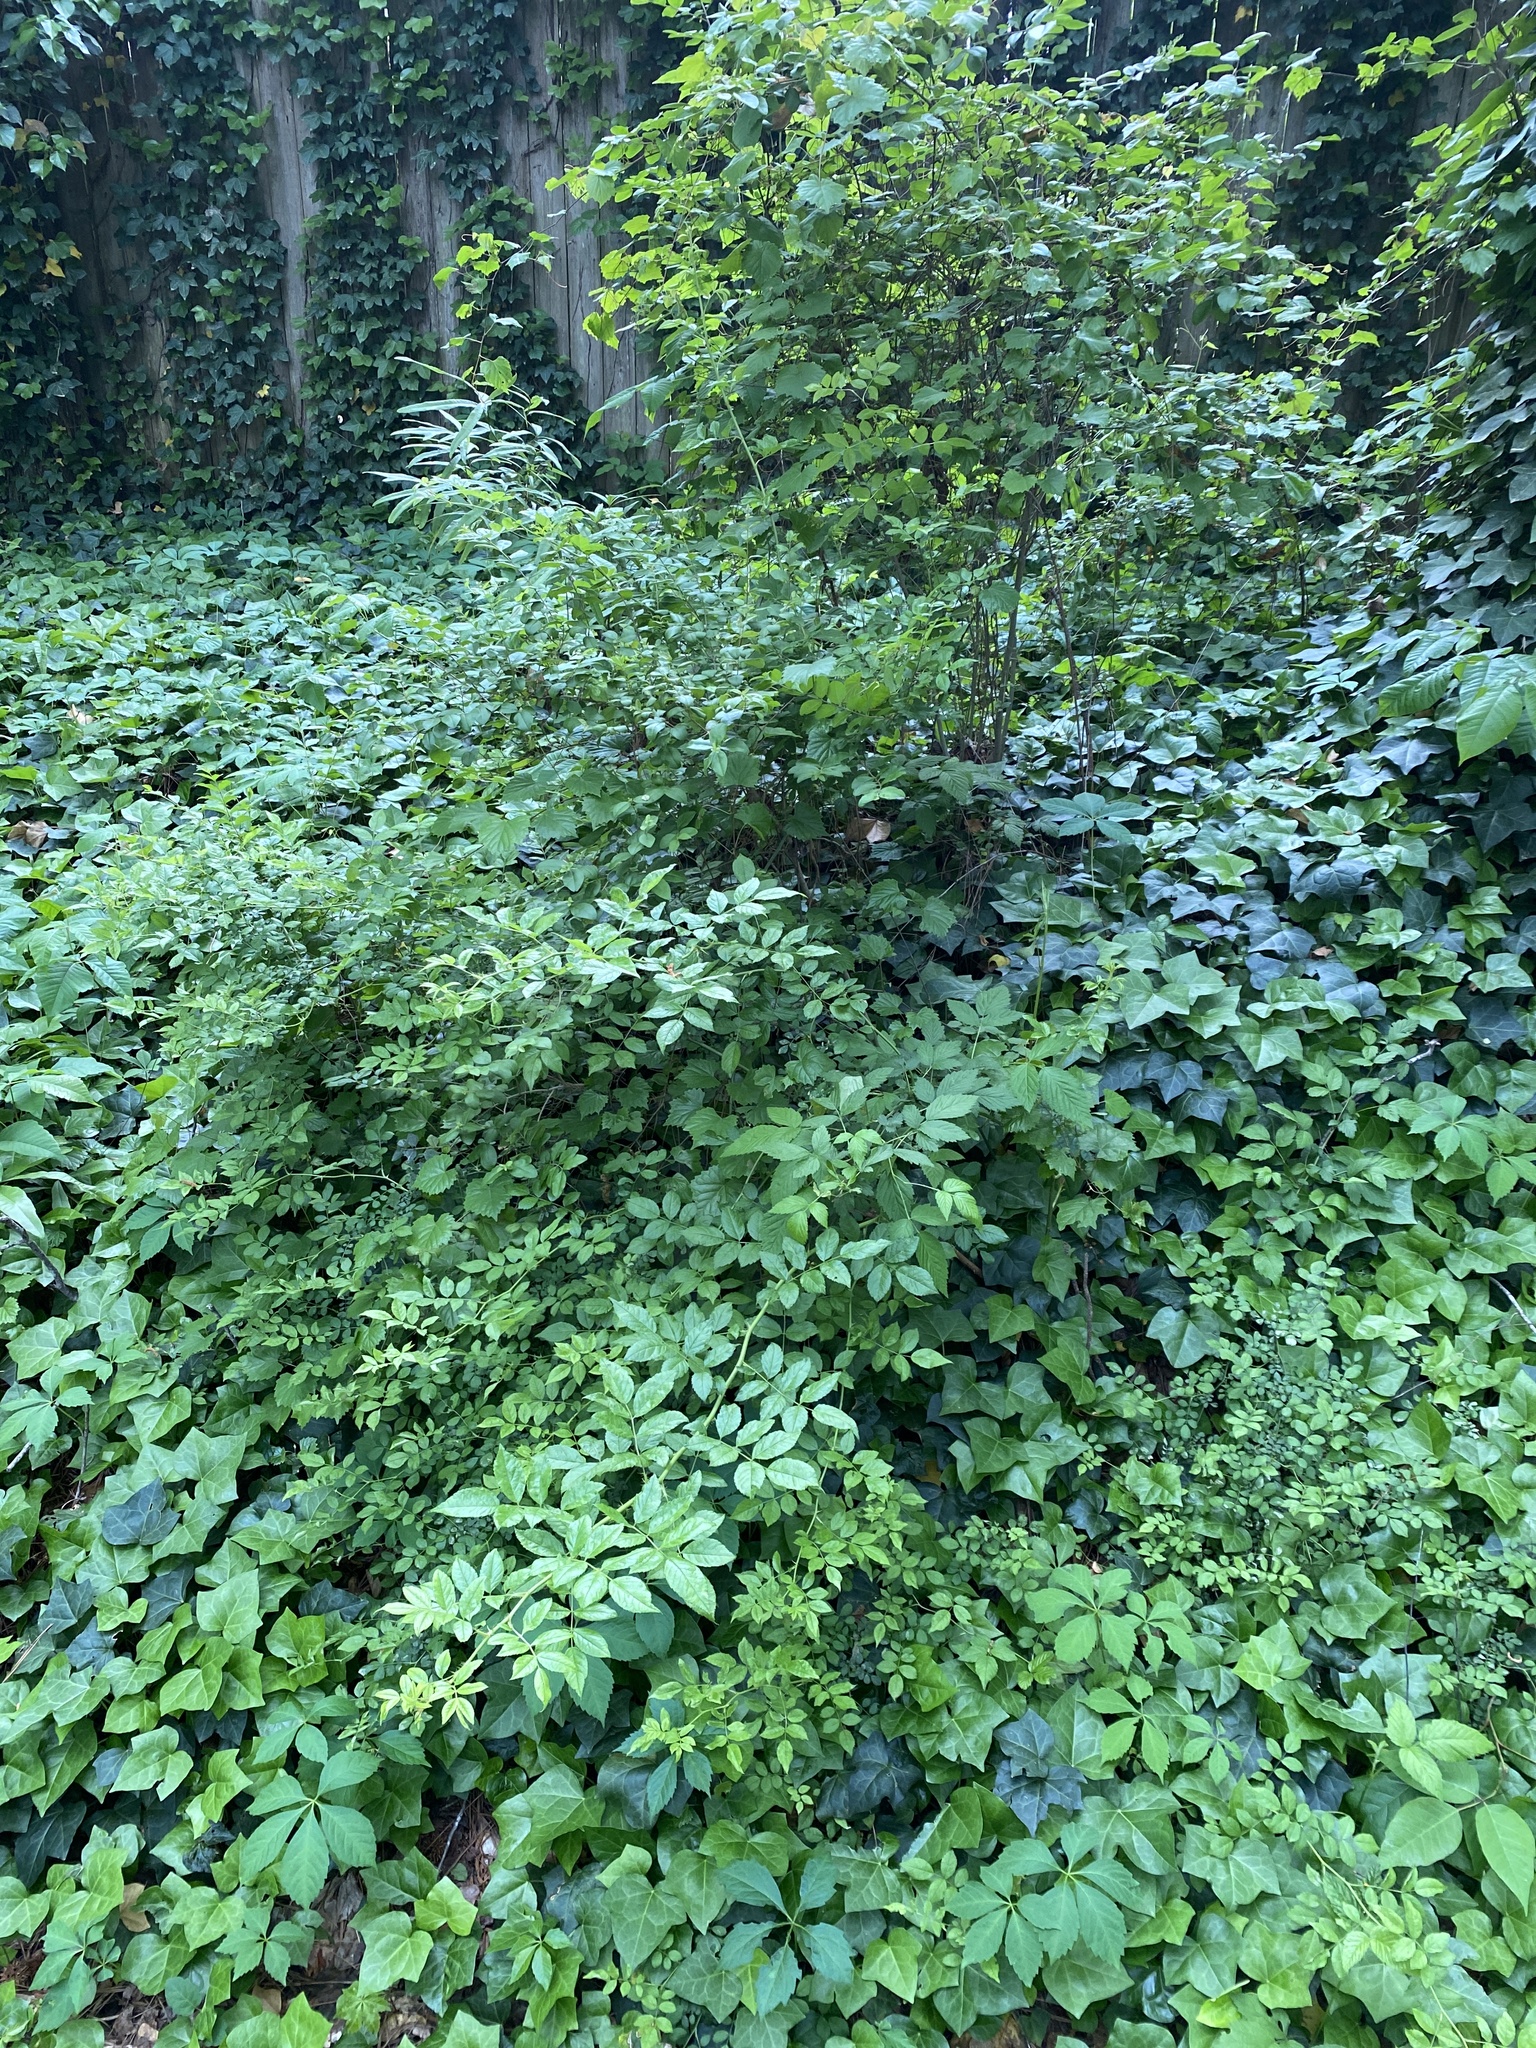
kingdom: Plantae
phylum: Tracheophyta
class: Magnoliopsida
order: Rosales
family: Rosaceae
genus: Rosa
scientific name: Rosa multiflora
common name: Multiflora rose
